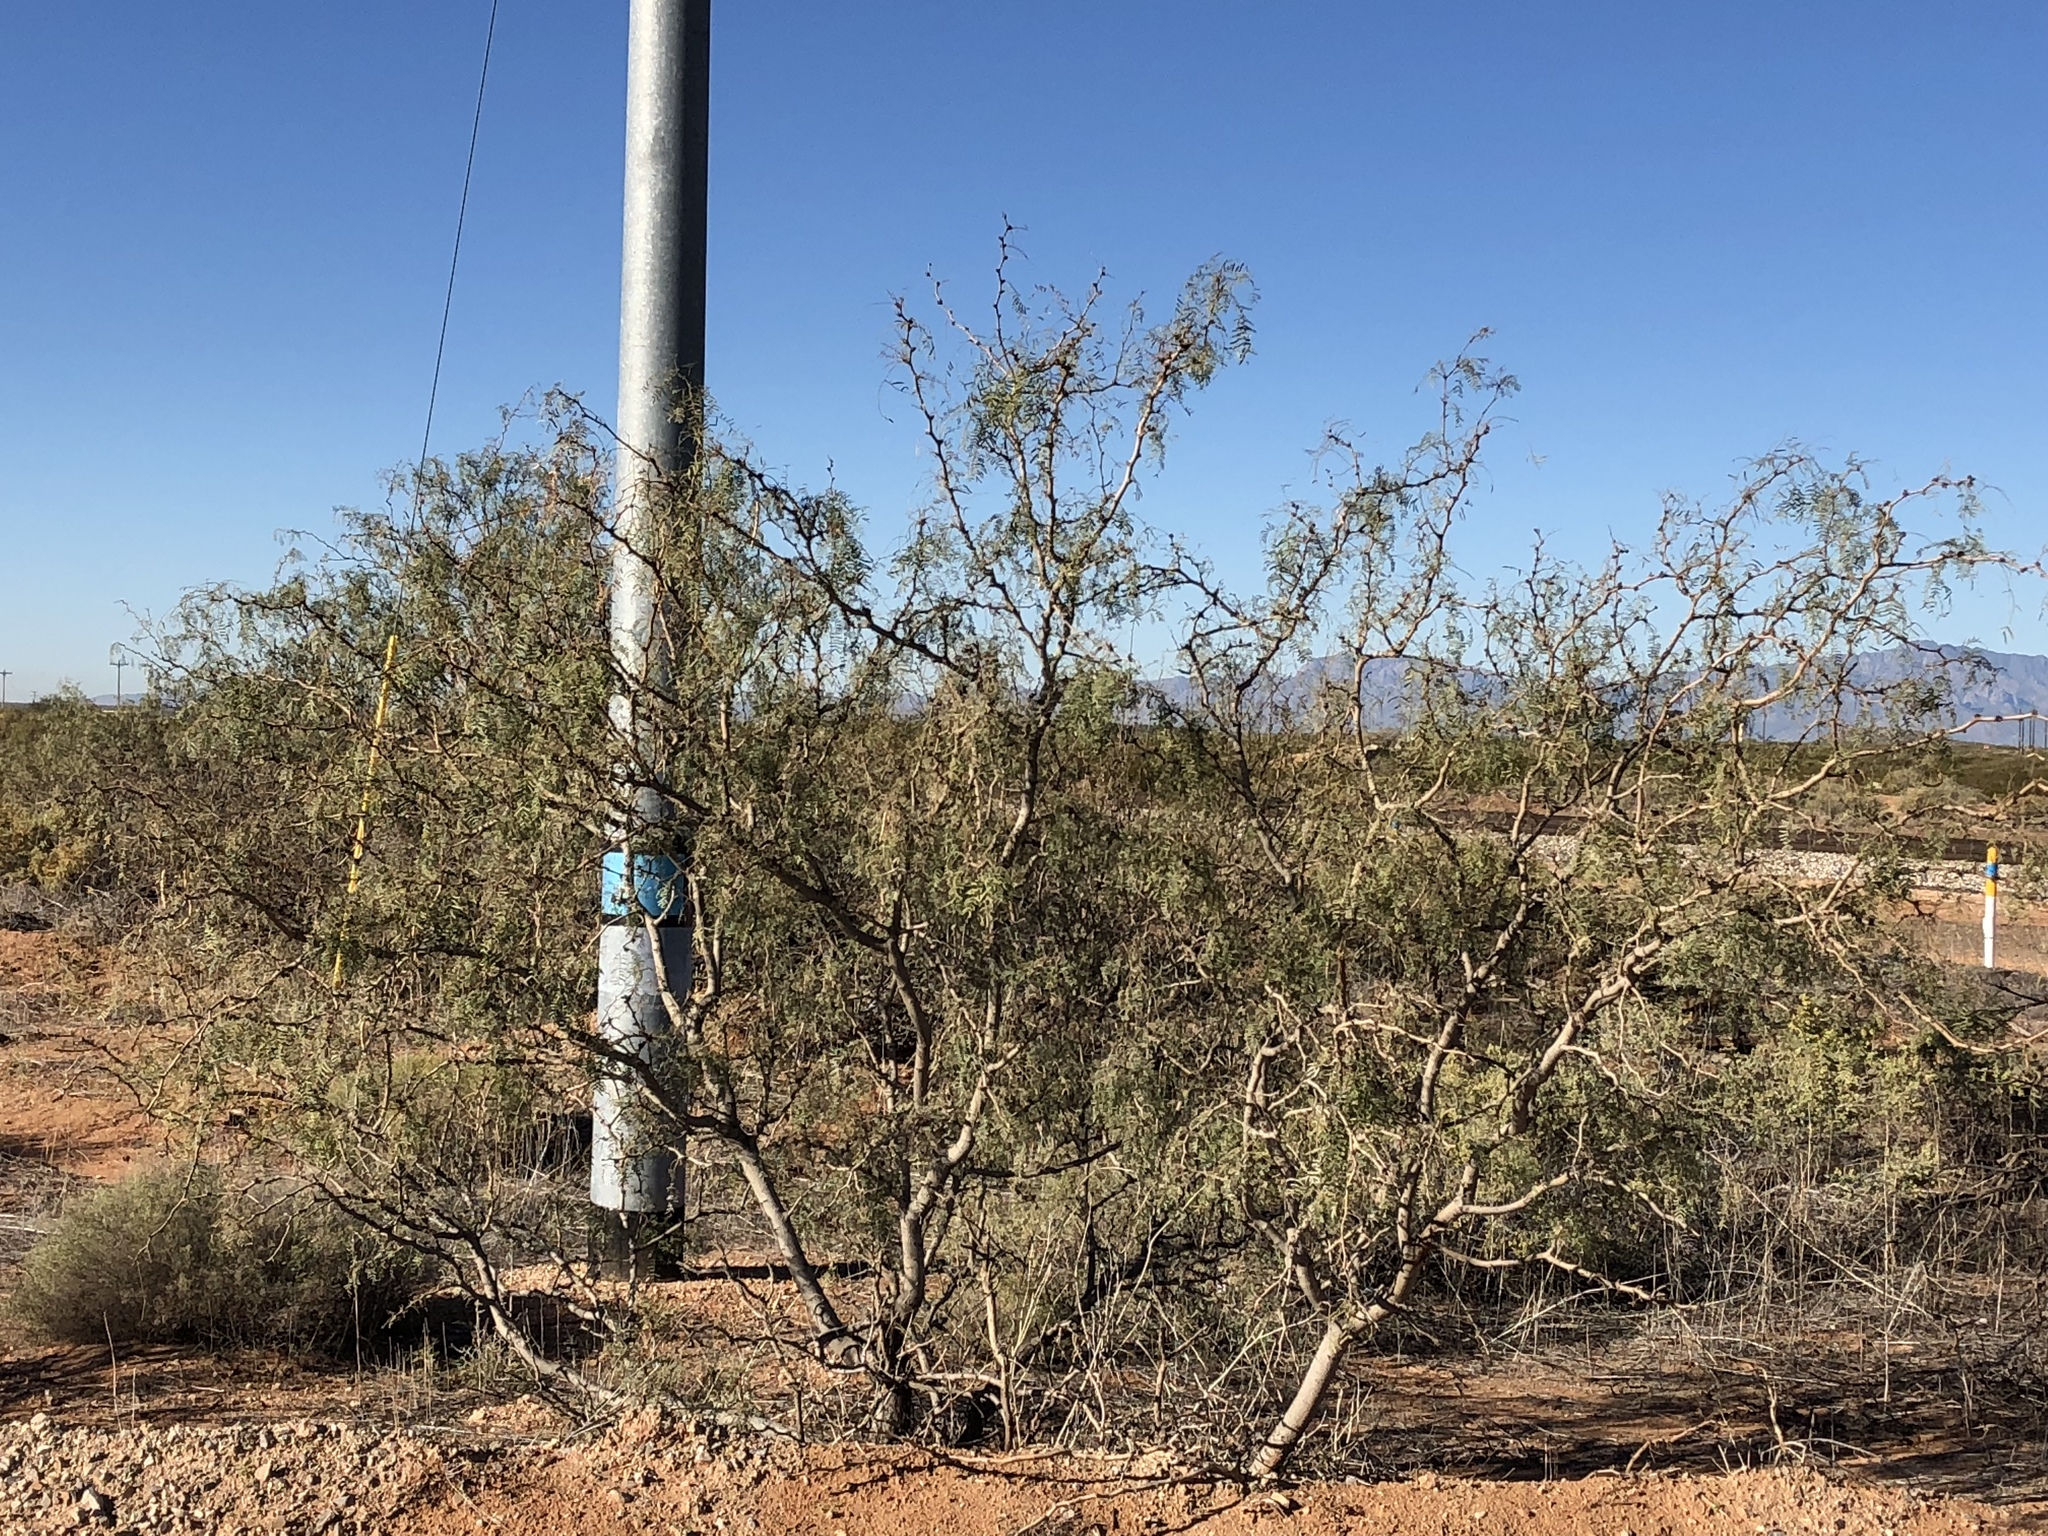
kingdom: Plantae
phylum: Tracheophyta
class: Magnoliopsida
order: Fabales
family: Fabaceae
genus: Prosopis
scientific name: Prosopis glandulosa
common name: Honey mesquite
